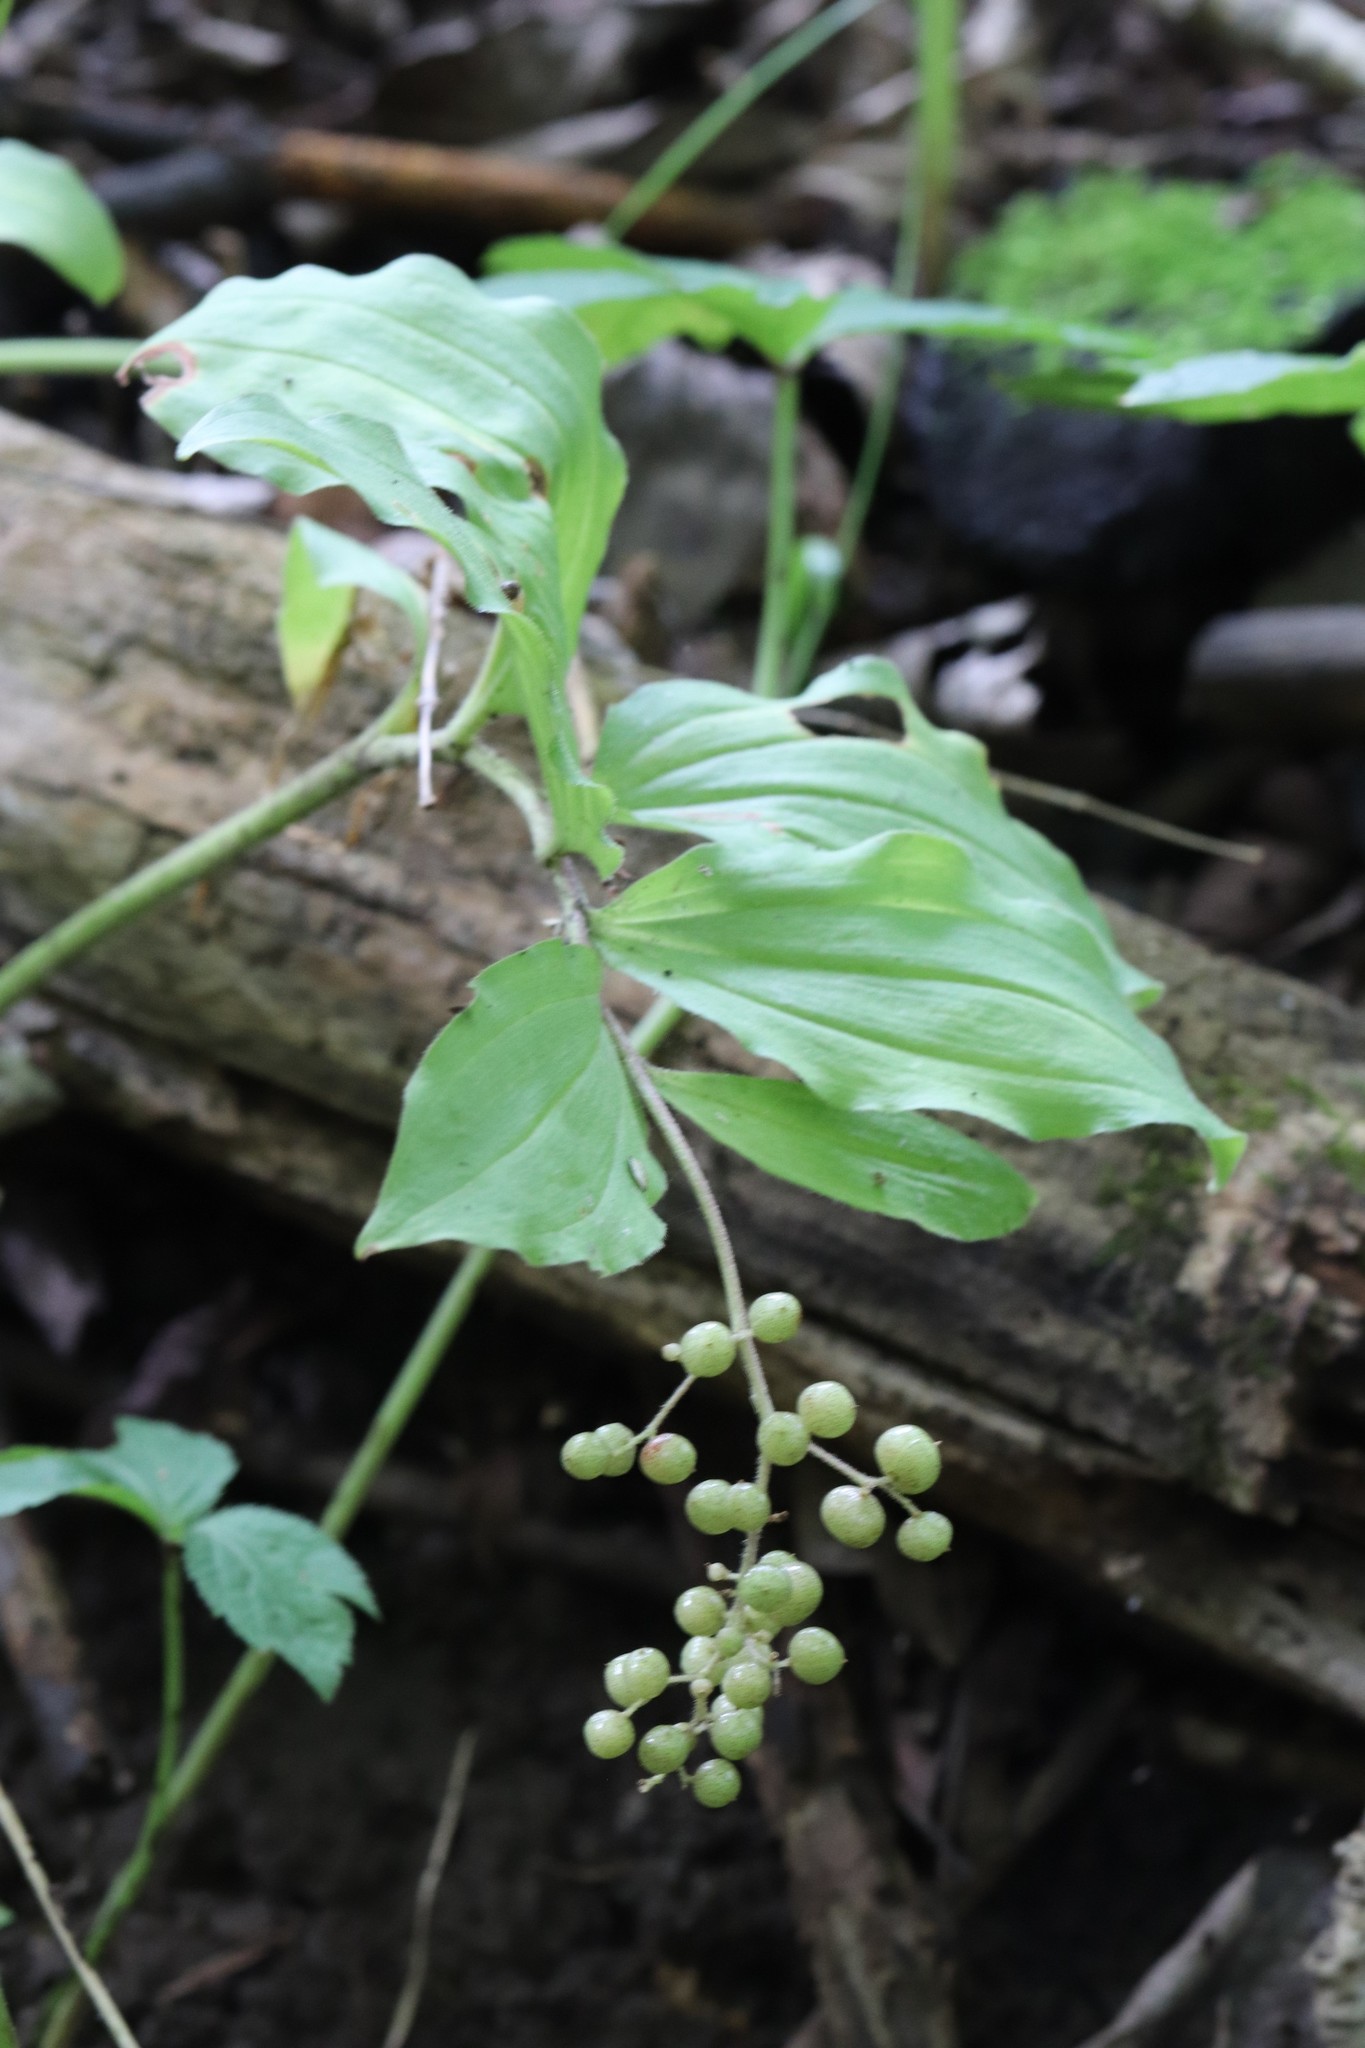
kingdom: Plantae
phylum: Tracheophyta
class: Liliopsida
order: Asparagales
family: Asparagaceae
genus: Maianthemum
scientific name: Maianthemum japonicum
